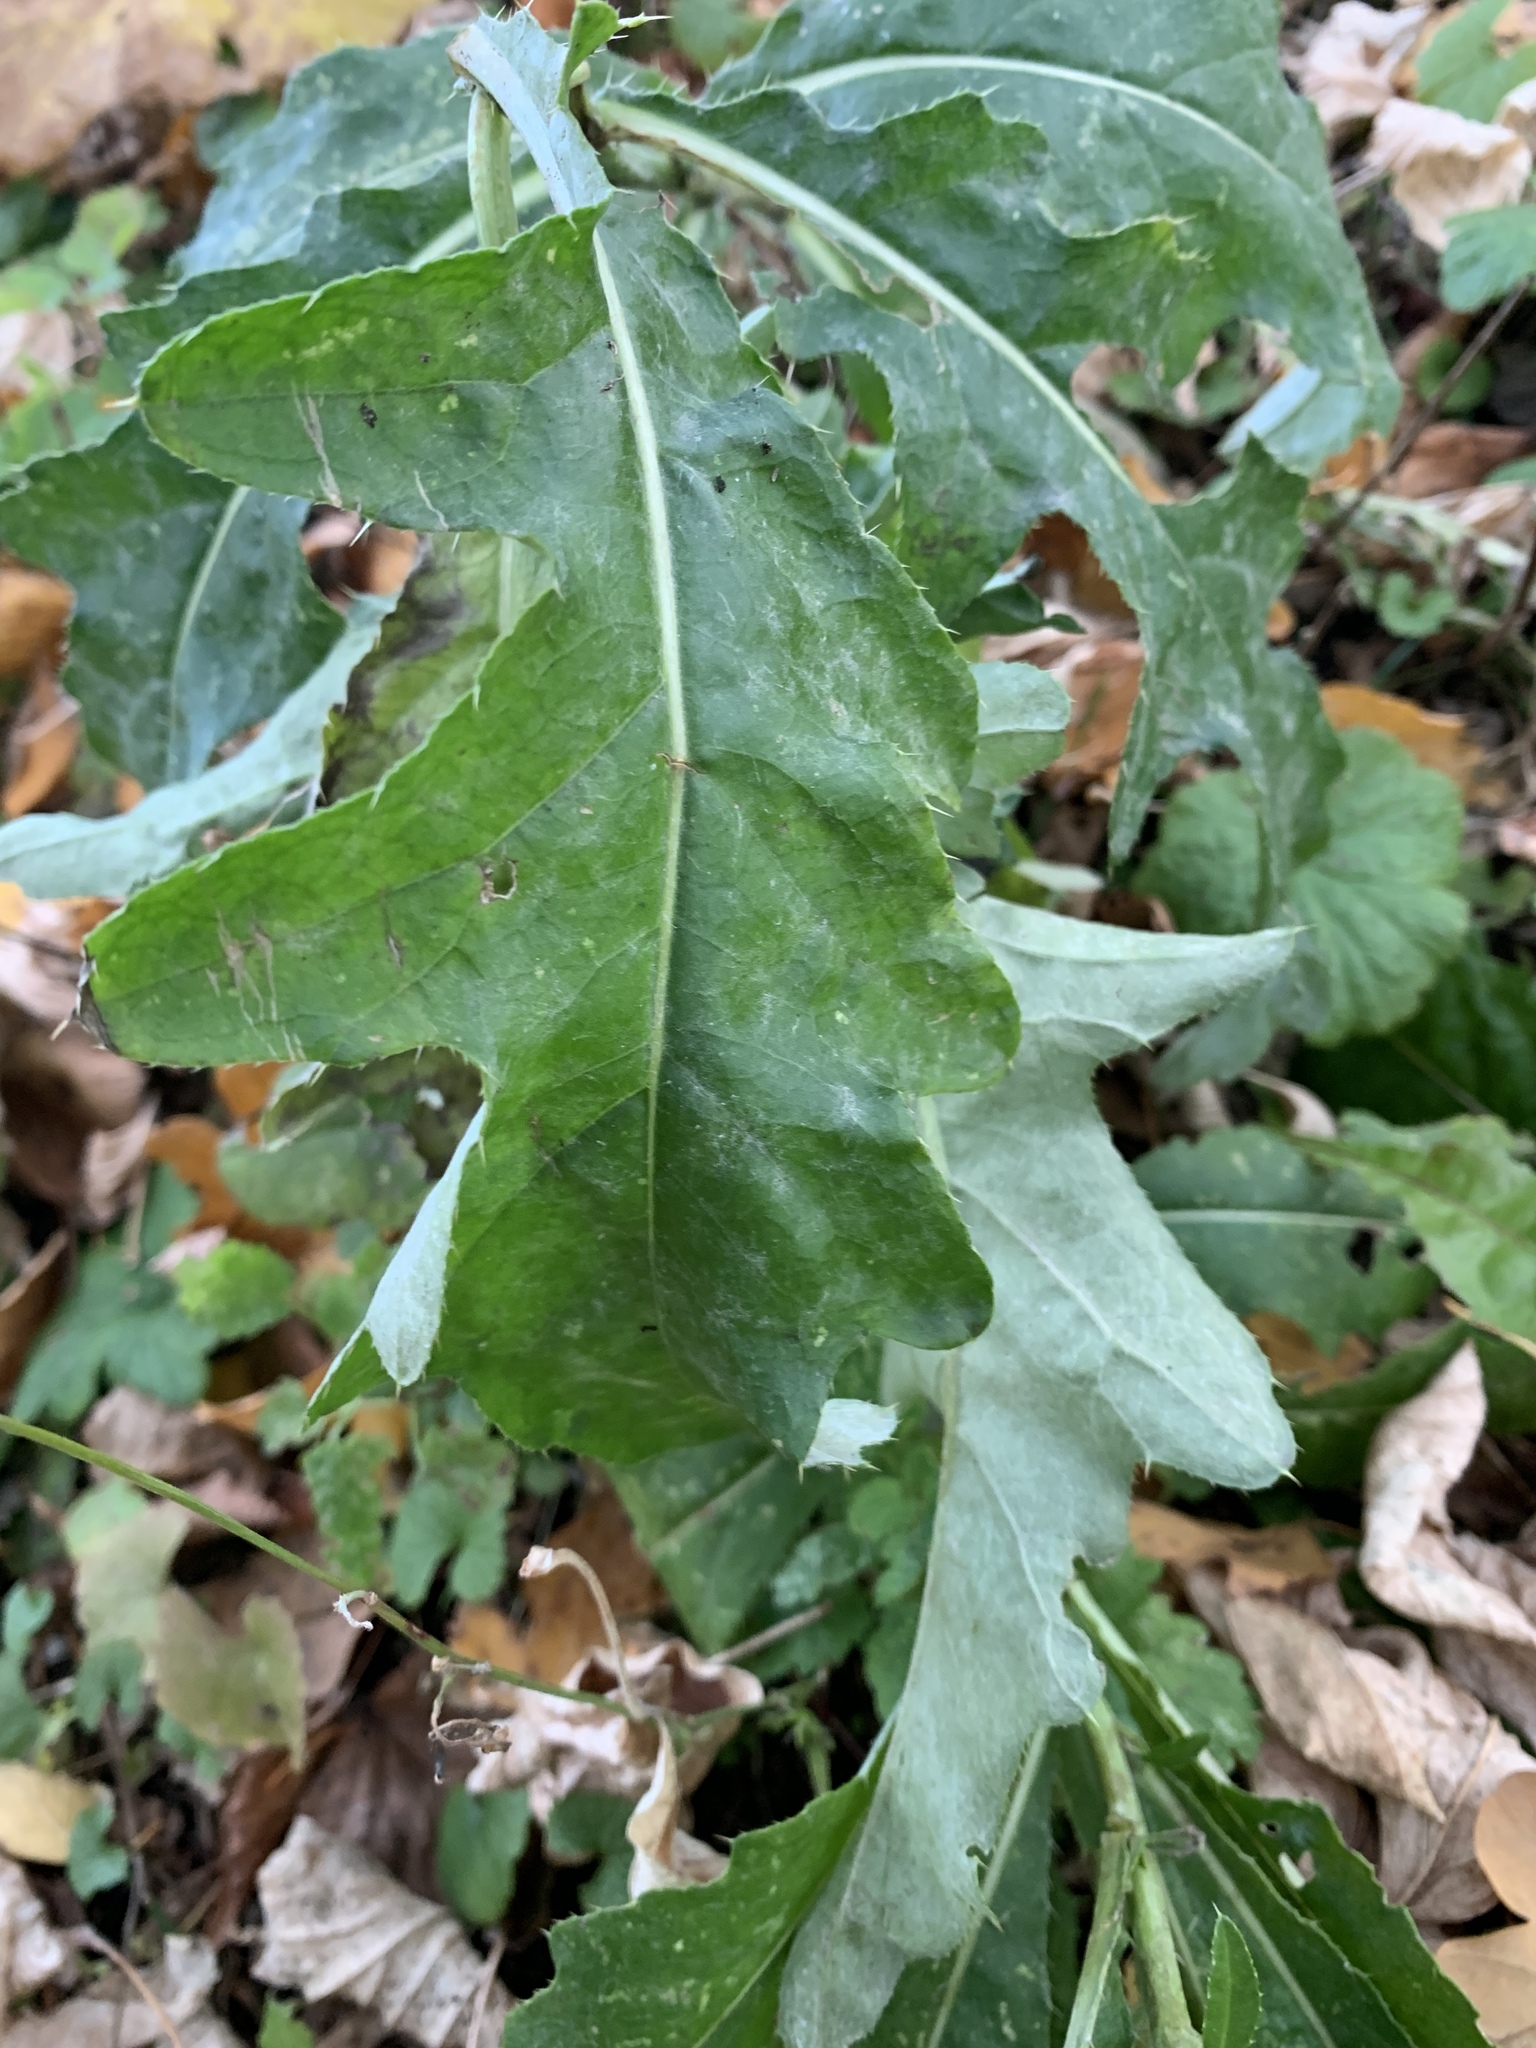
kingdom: Plantae
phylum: Tracheophyta
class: Magnoliopsida
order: Asterales
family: Asteraceae
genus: Cirsium
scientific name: Cirsium arvense
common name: Creeping thistle
